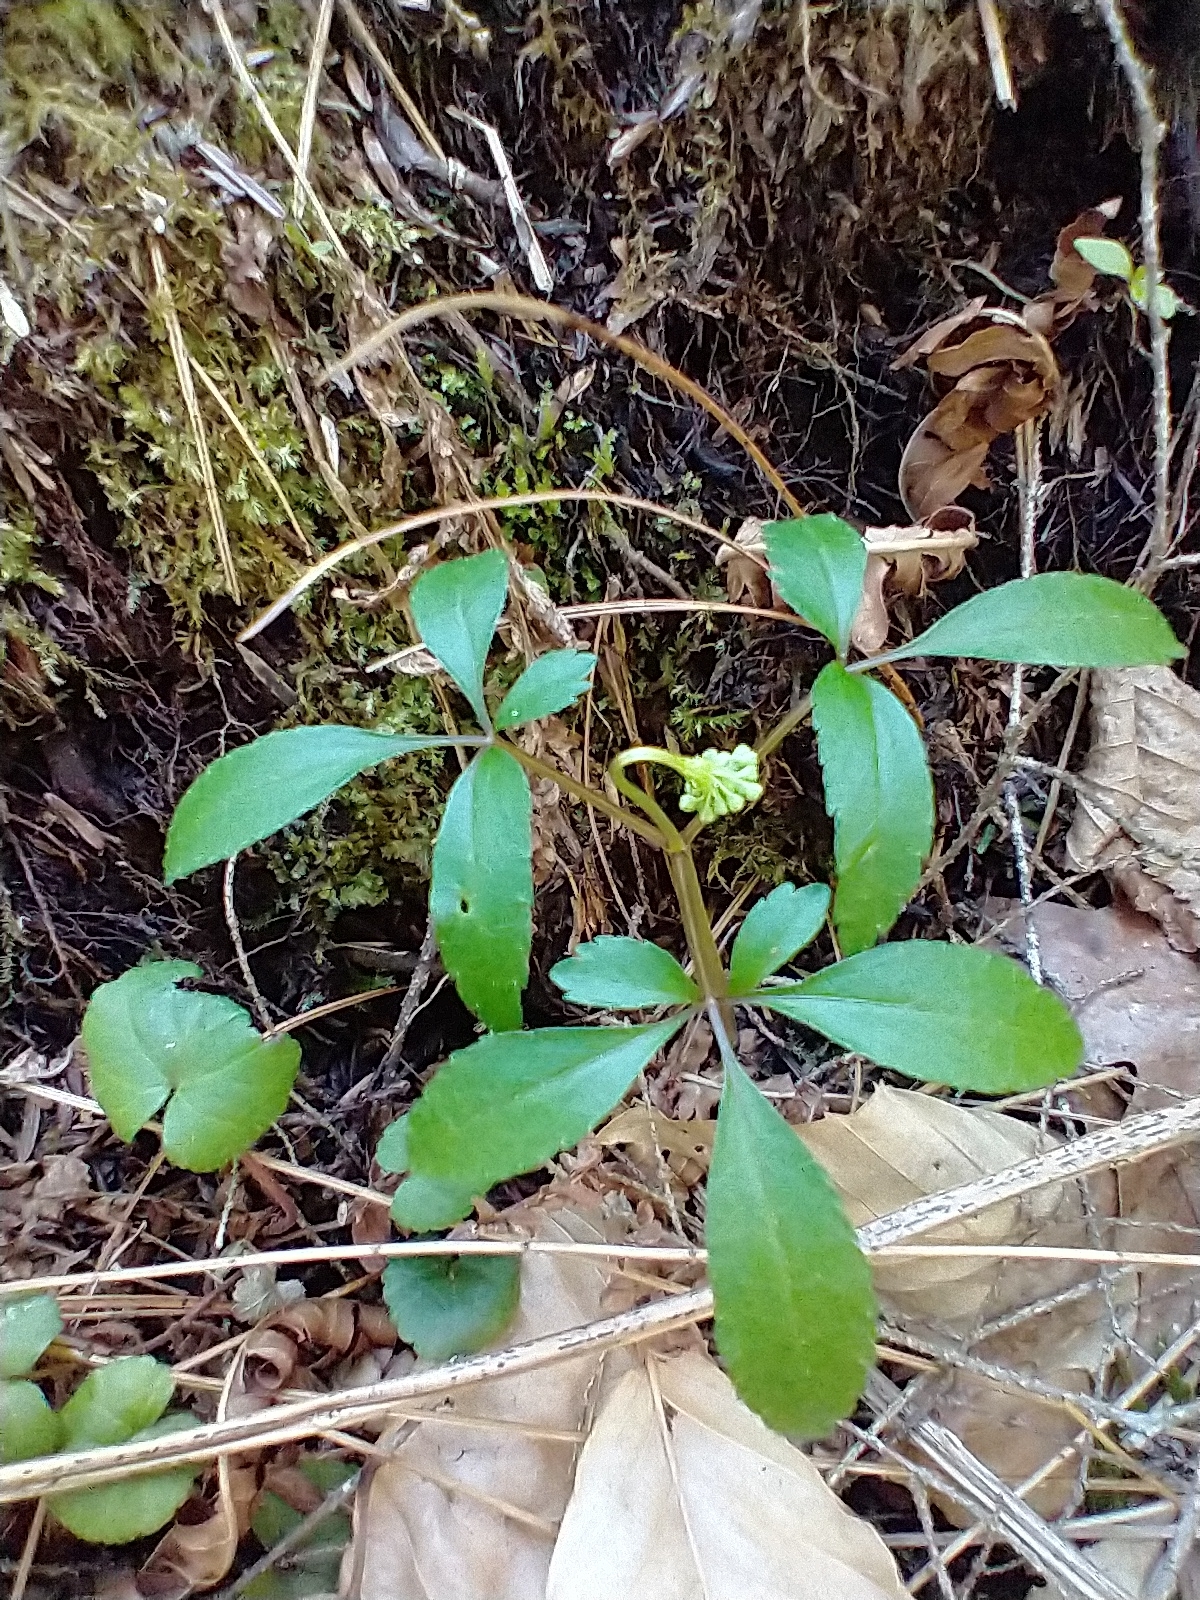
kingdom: Plantae
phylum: Tracheophyta
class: Magnoliopsida
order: Apiales
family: Araliaceae
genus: Panax
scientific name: Panax trifolius
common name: Dwarf ginseng
